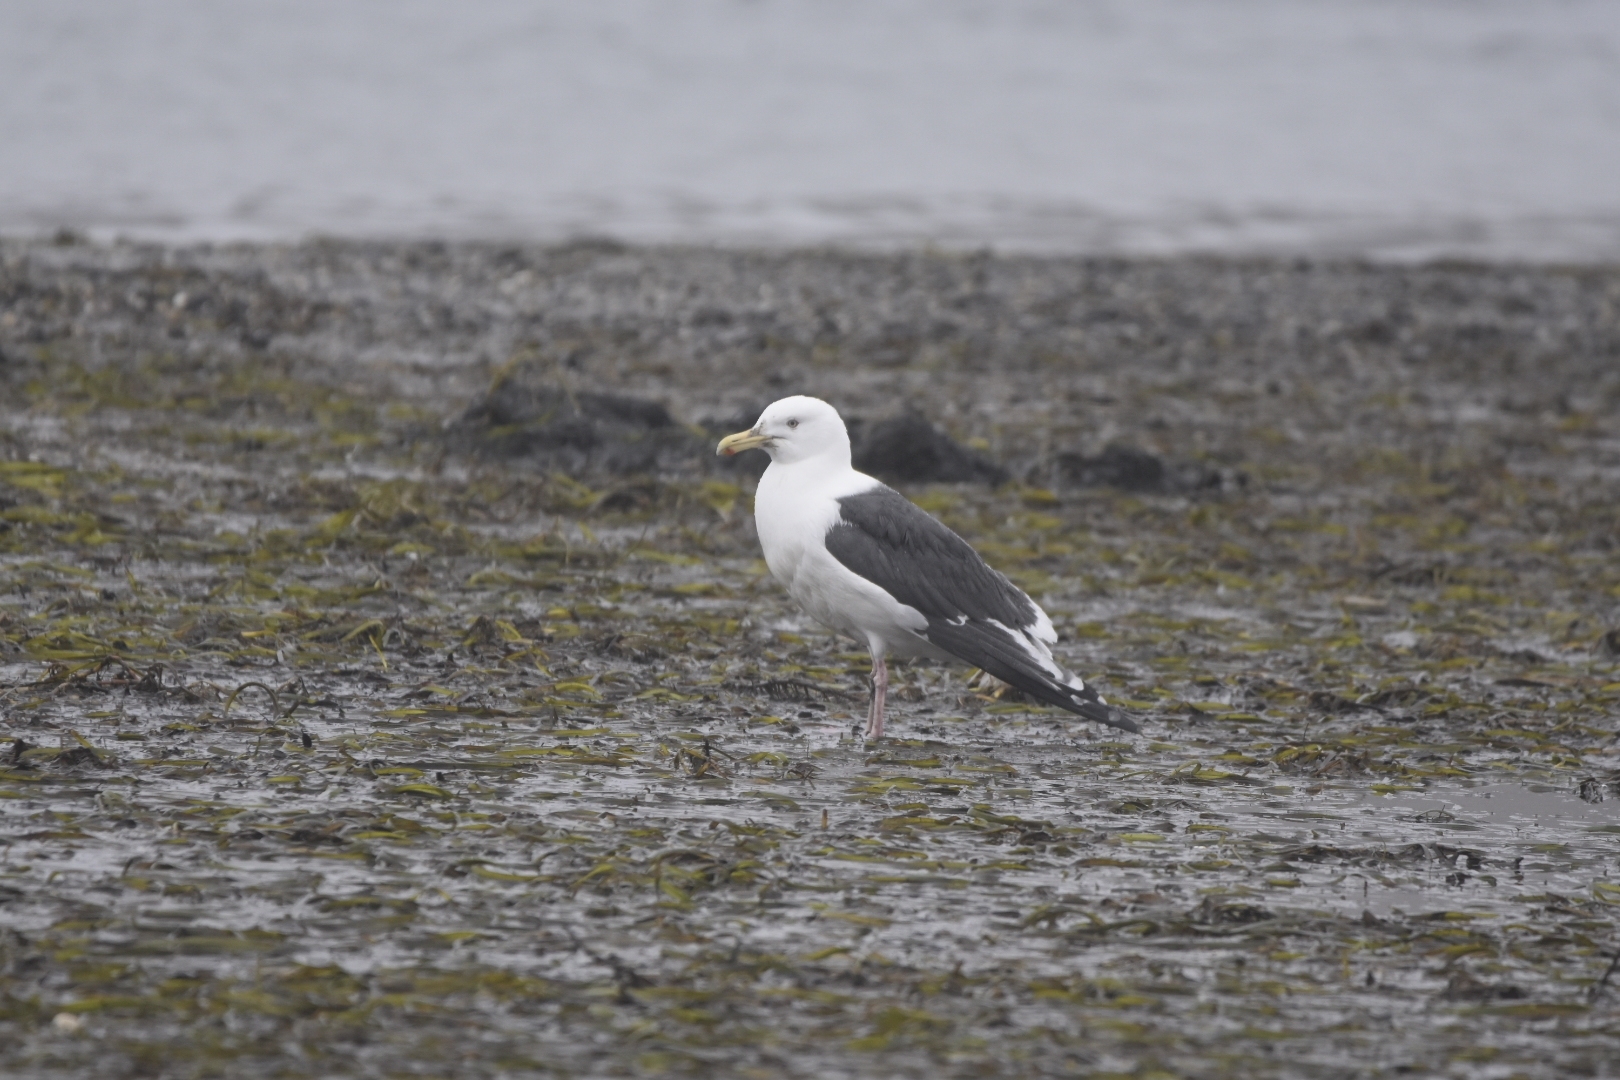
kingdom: Animalia
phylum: Chordata
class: Aves
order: Charadriiformes
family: Laridae
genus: Larus
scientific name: Larus schistisagus
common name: Slaty-backed gull
